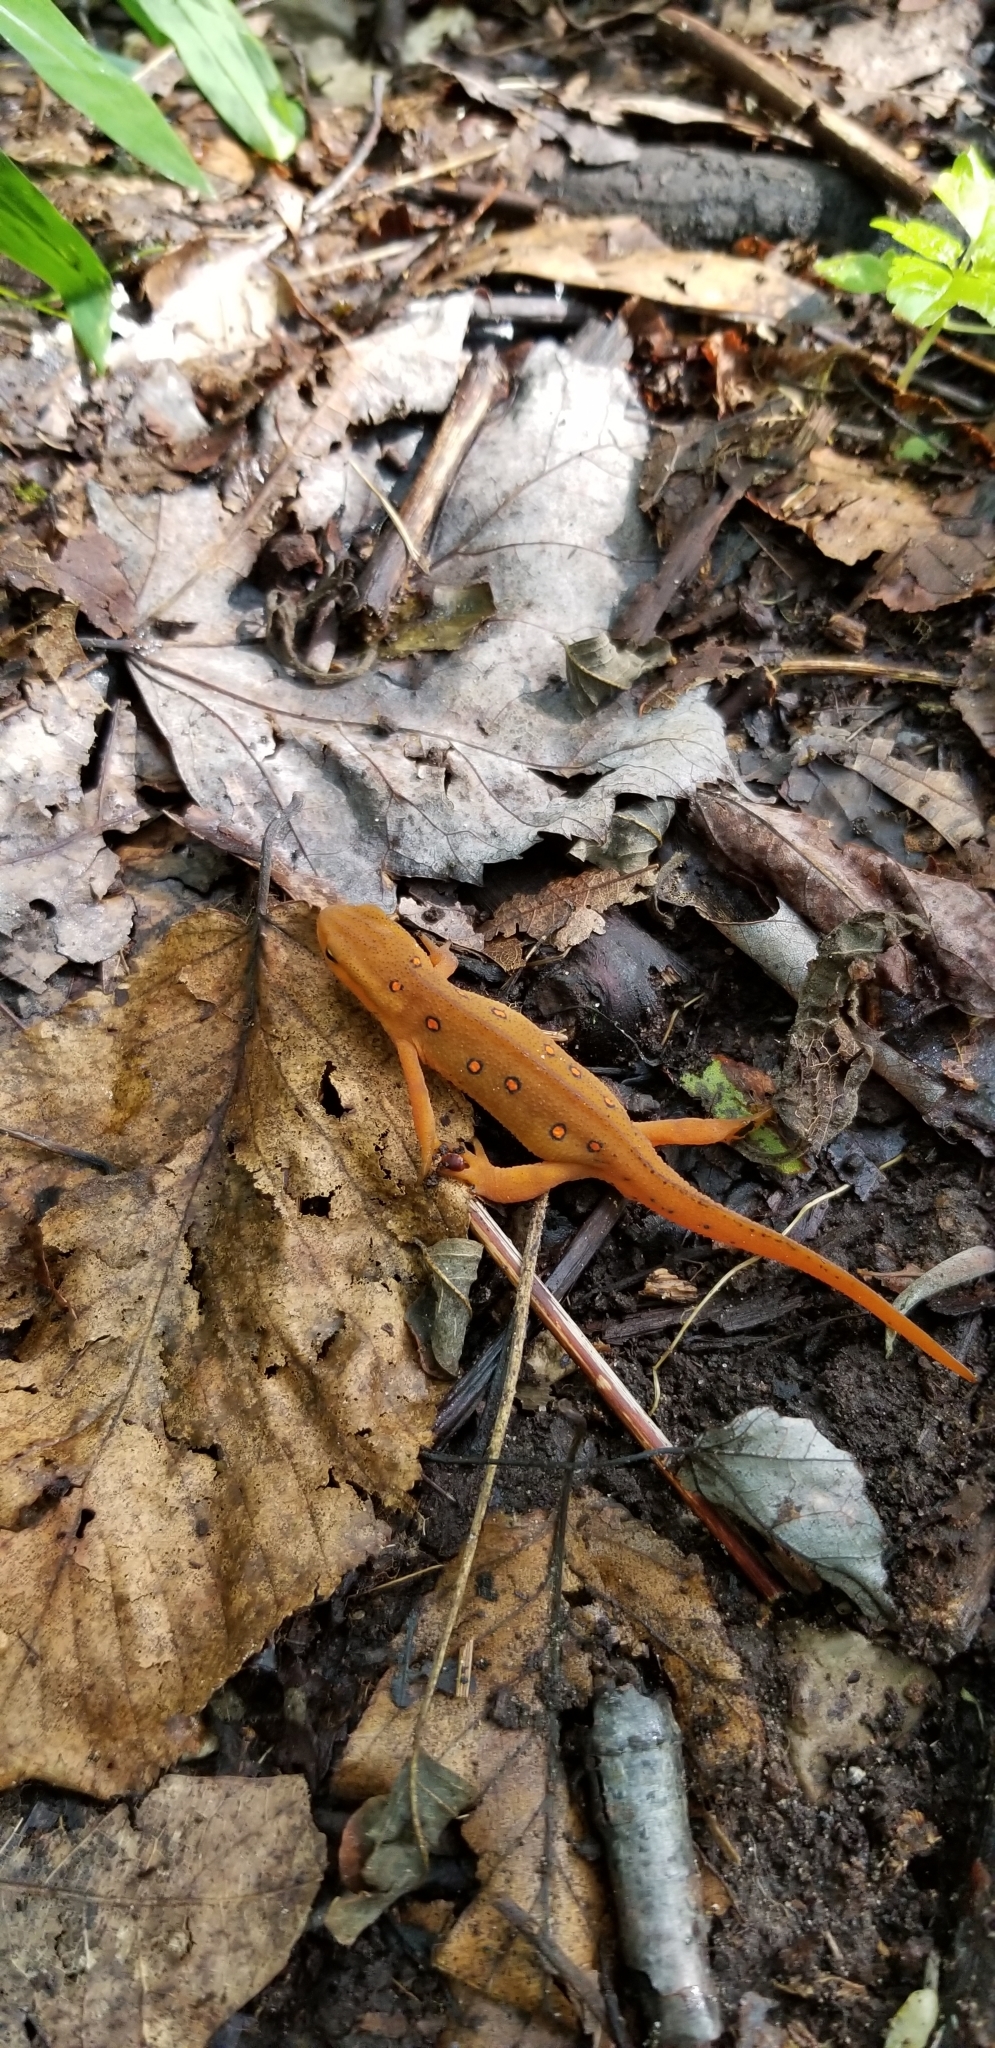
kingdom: Animalia
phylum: Chordata
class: Amphibia
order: Caudata
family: Salamandridae
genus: Notophthalmus
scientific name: Notophthalmus viridescens
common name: Eastern newt
